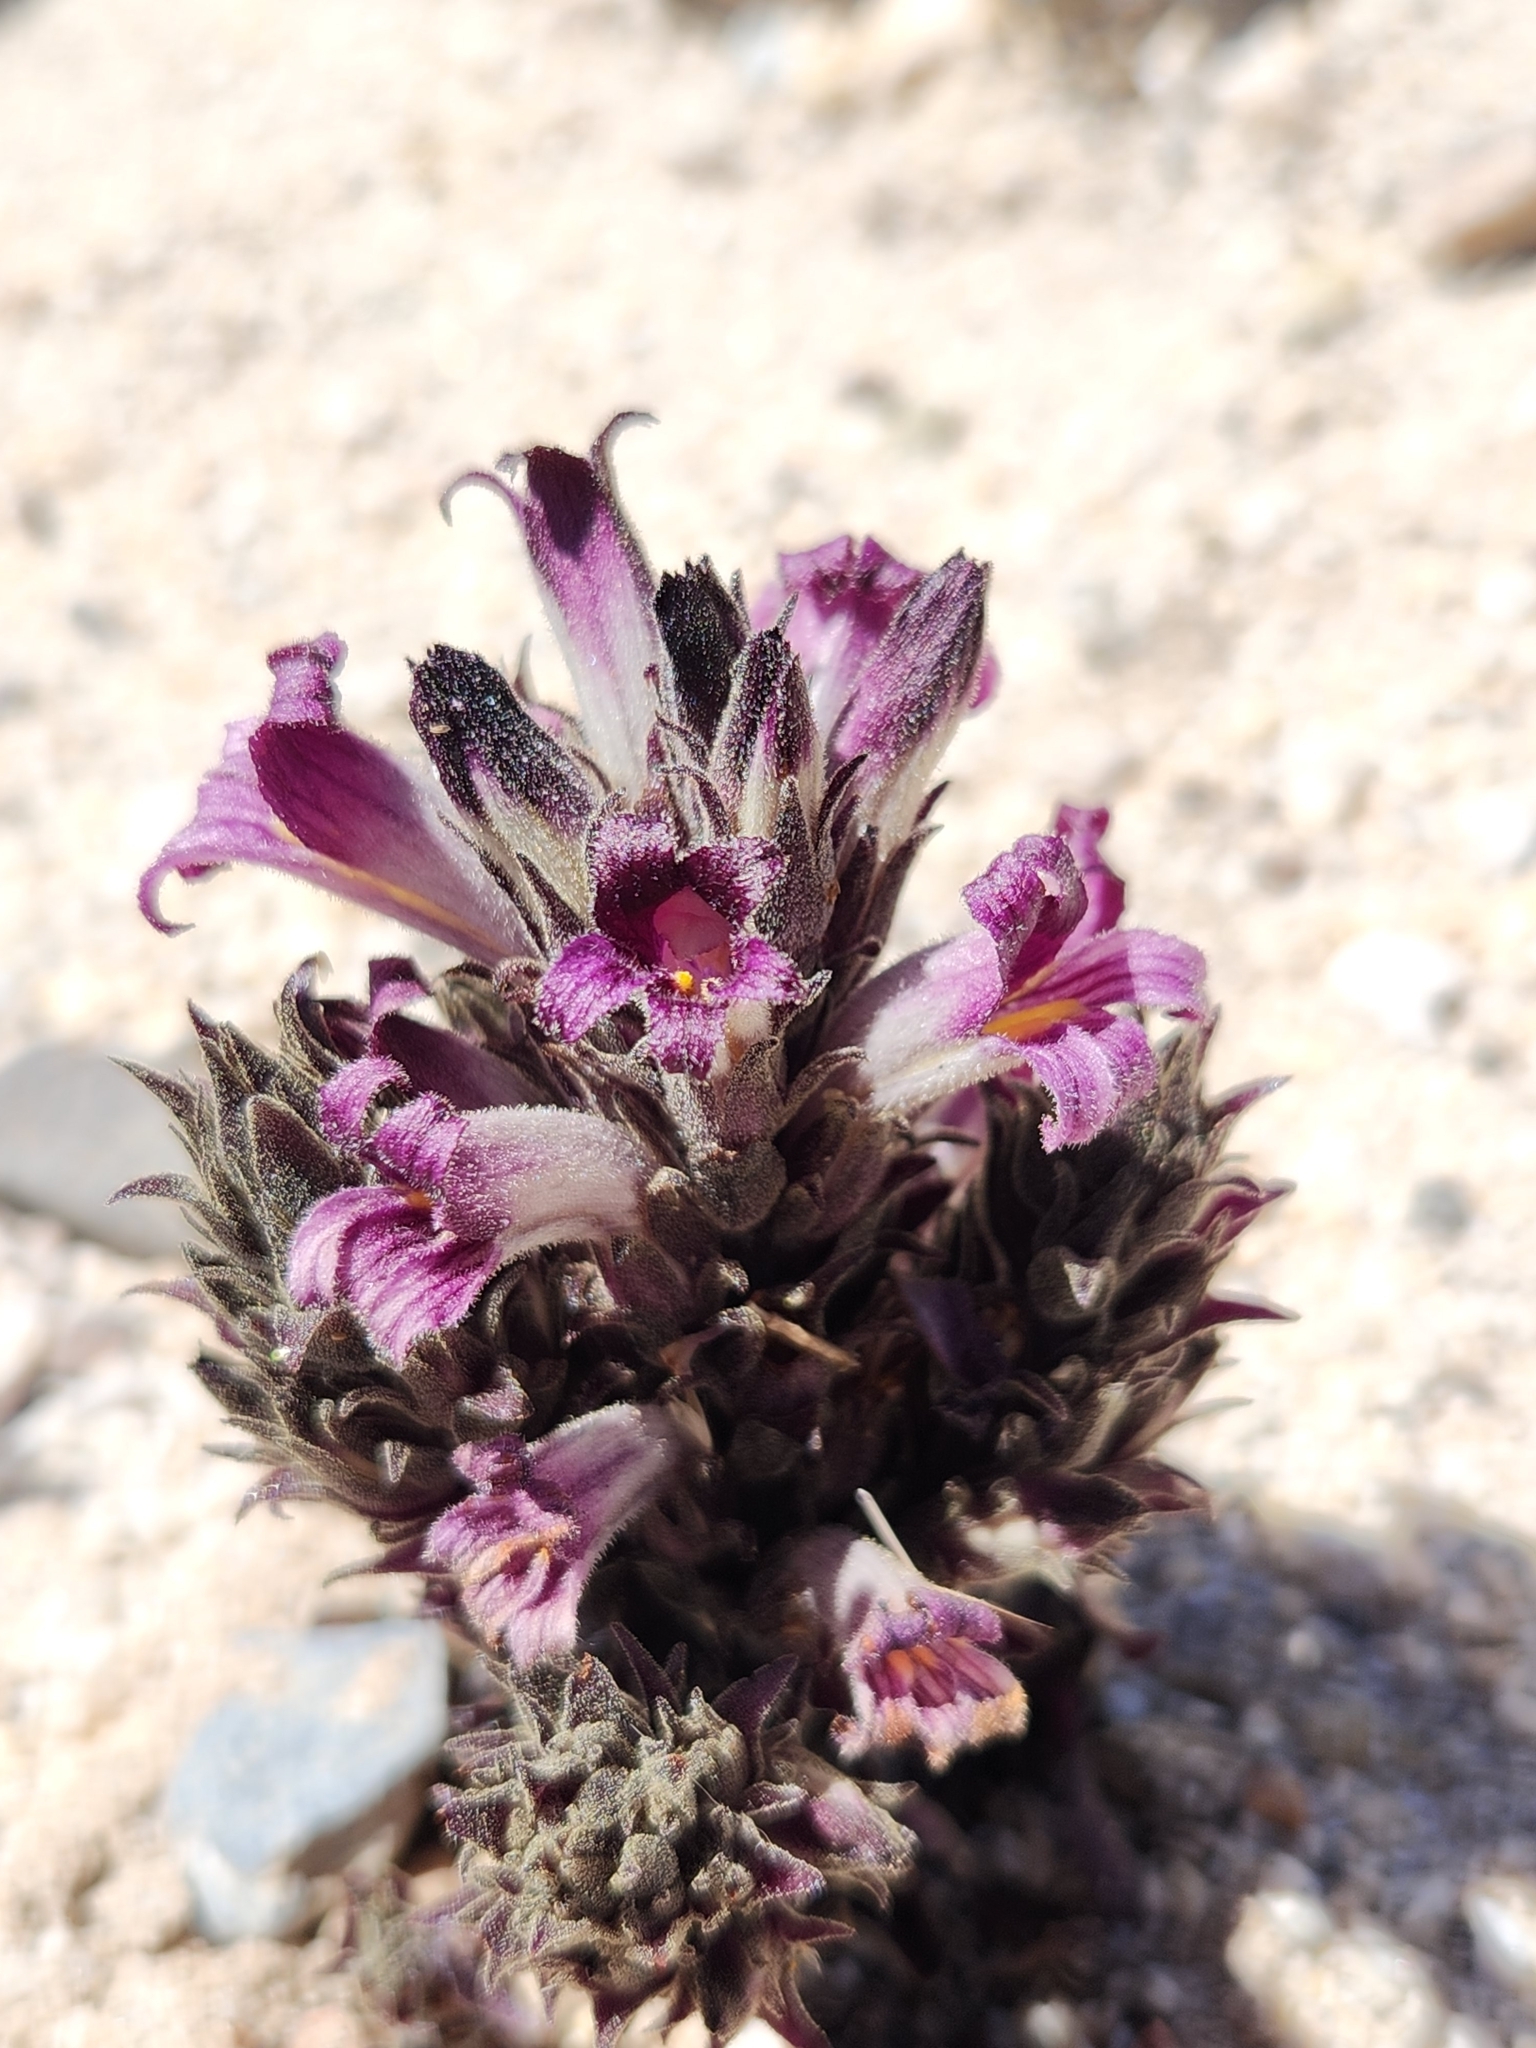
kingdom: Plantae
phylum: Tracheophyta
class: Magnoliopsida
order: Lamiales
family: Orobanchaceae
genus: Aphyllon
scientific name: Aphyllon cooperi
